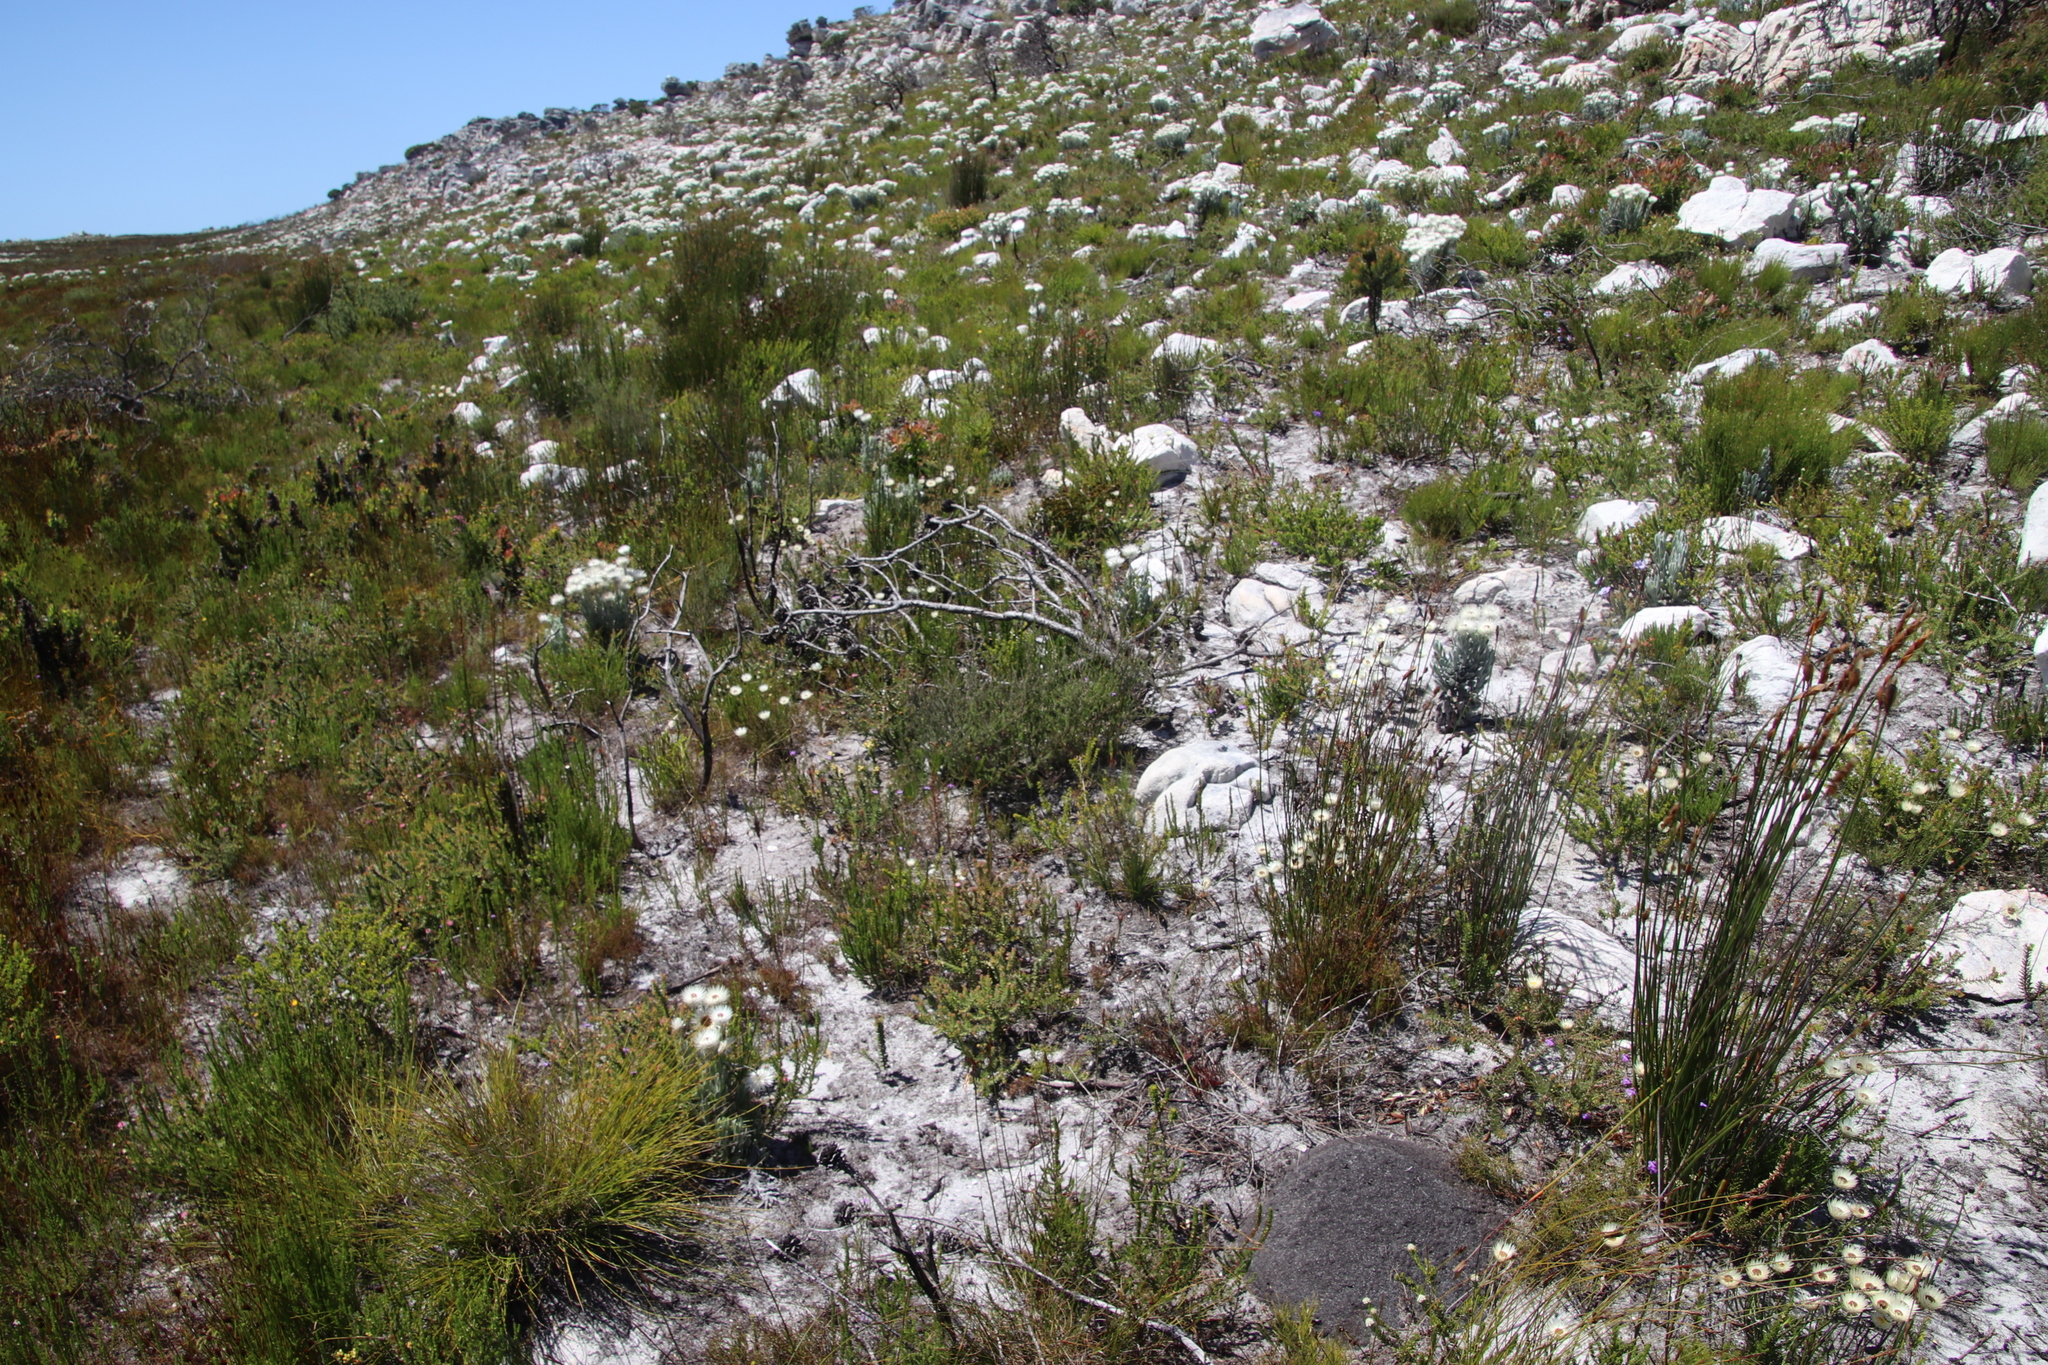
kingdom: Plantae
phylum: Tracheophyta
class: Magnoliopsida
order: Asterales
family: Asteraceae
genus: Edmondia
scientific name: Edmondia sesamoides
